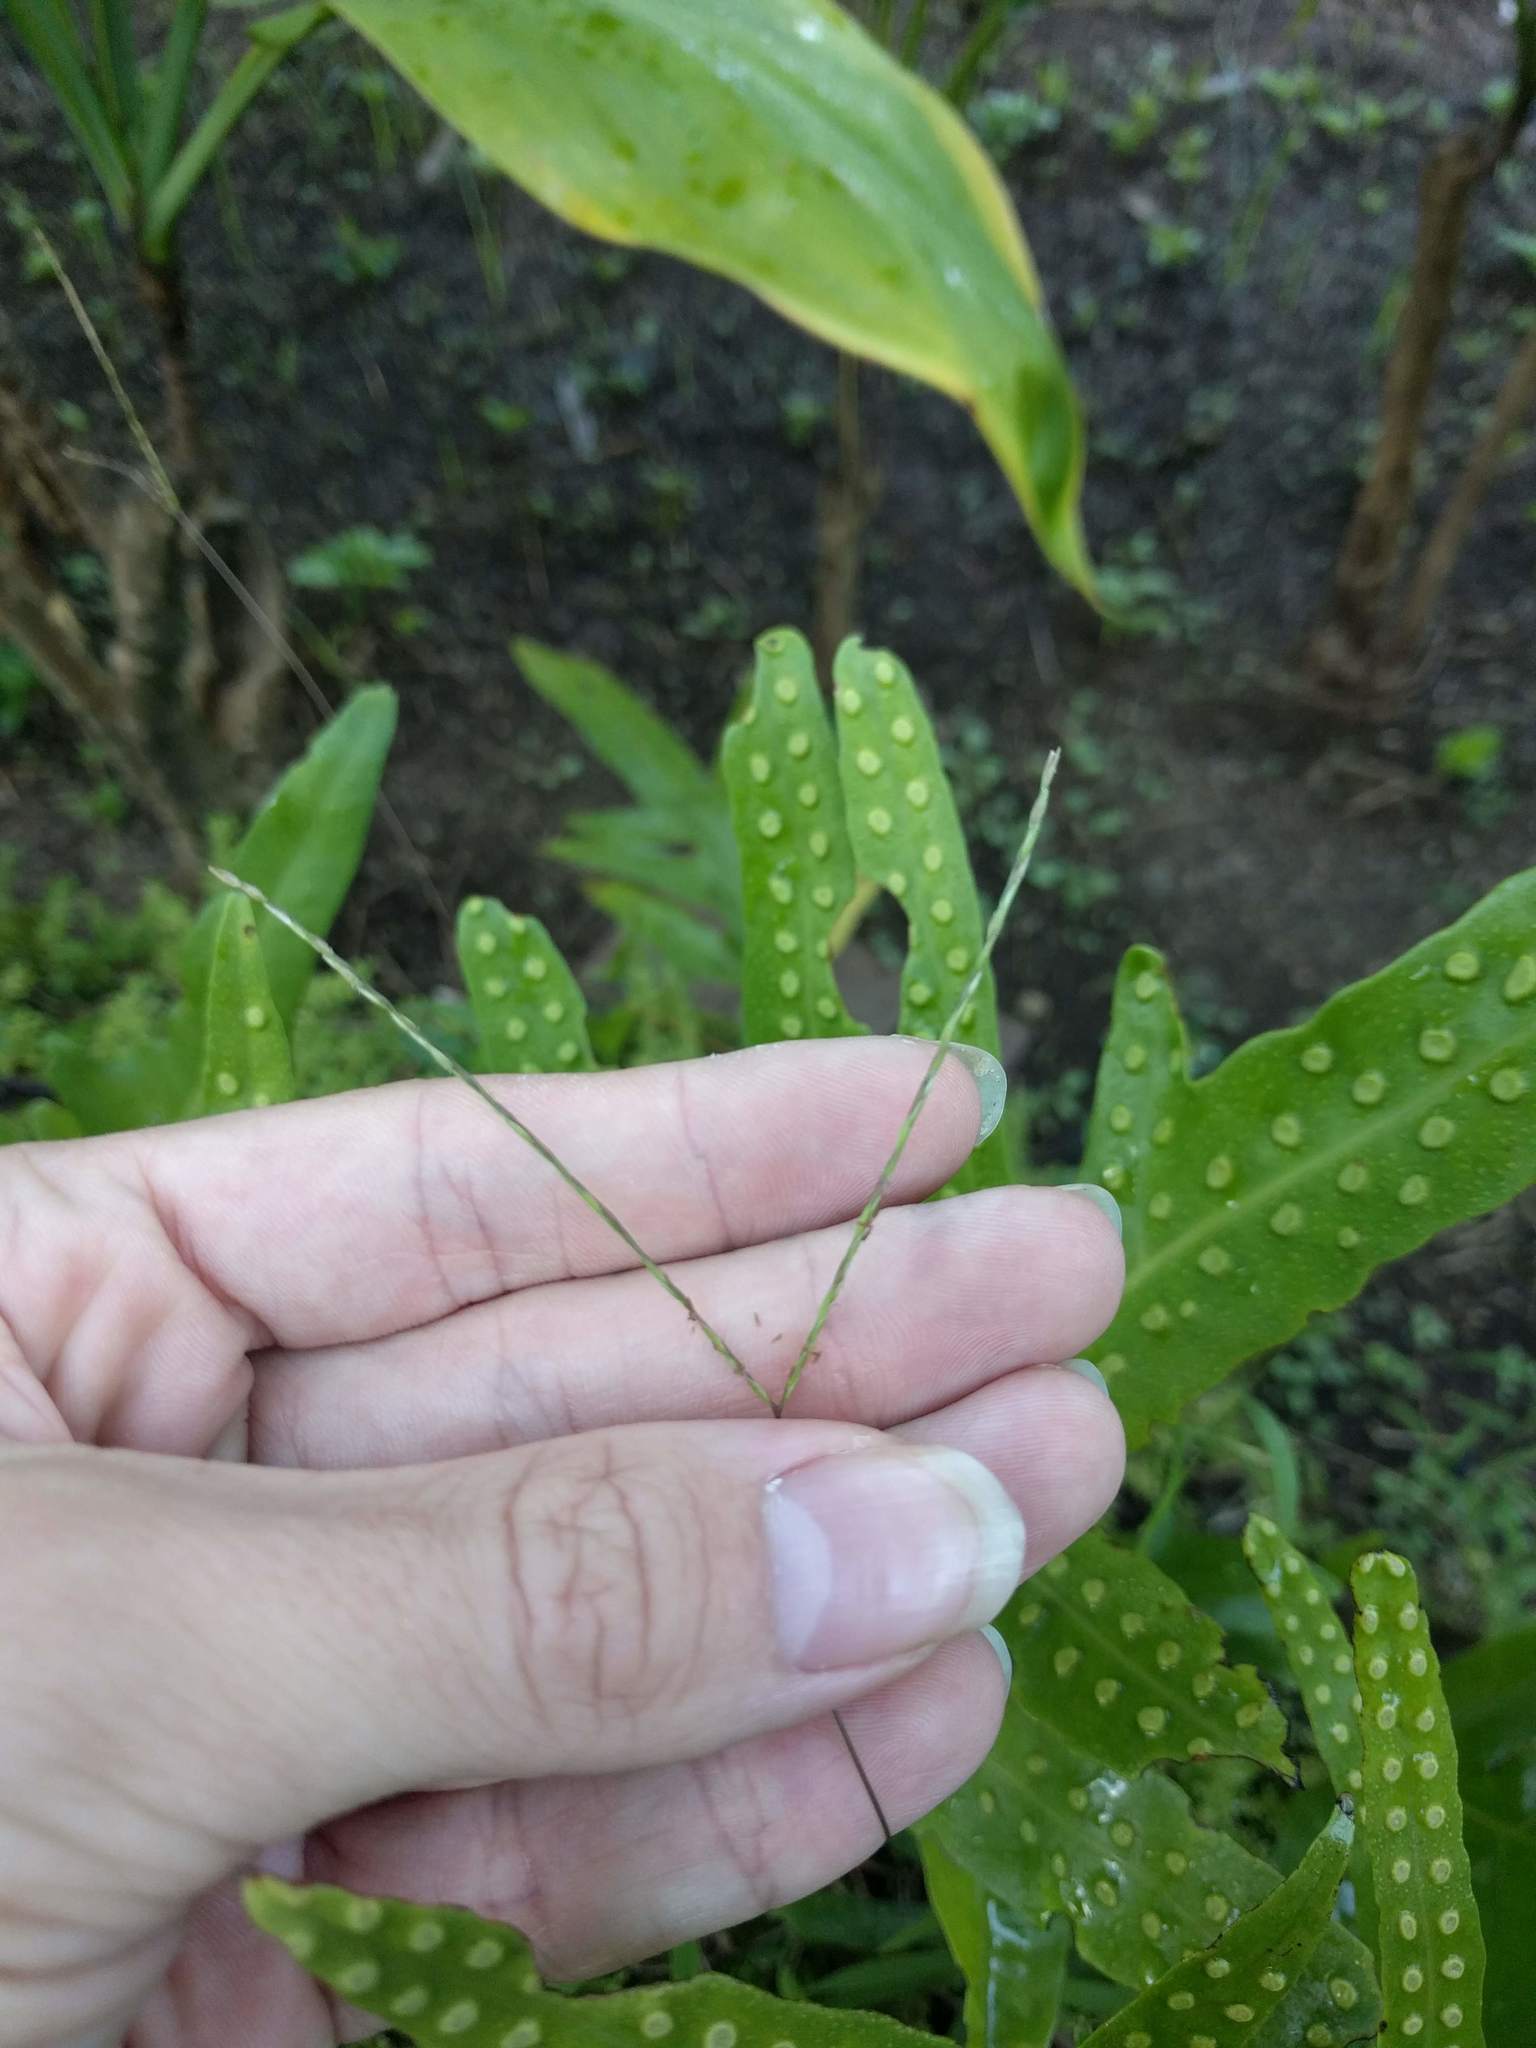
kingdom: Plantae
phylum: Tracheophyta
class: Polypodiopsida
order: Polypodiales
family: Polypodiaceae
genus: Microsorum
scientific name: Microsorum grossum
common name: Musk fern
